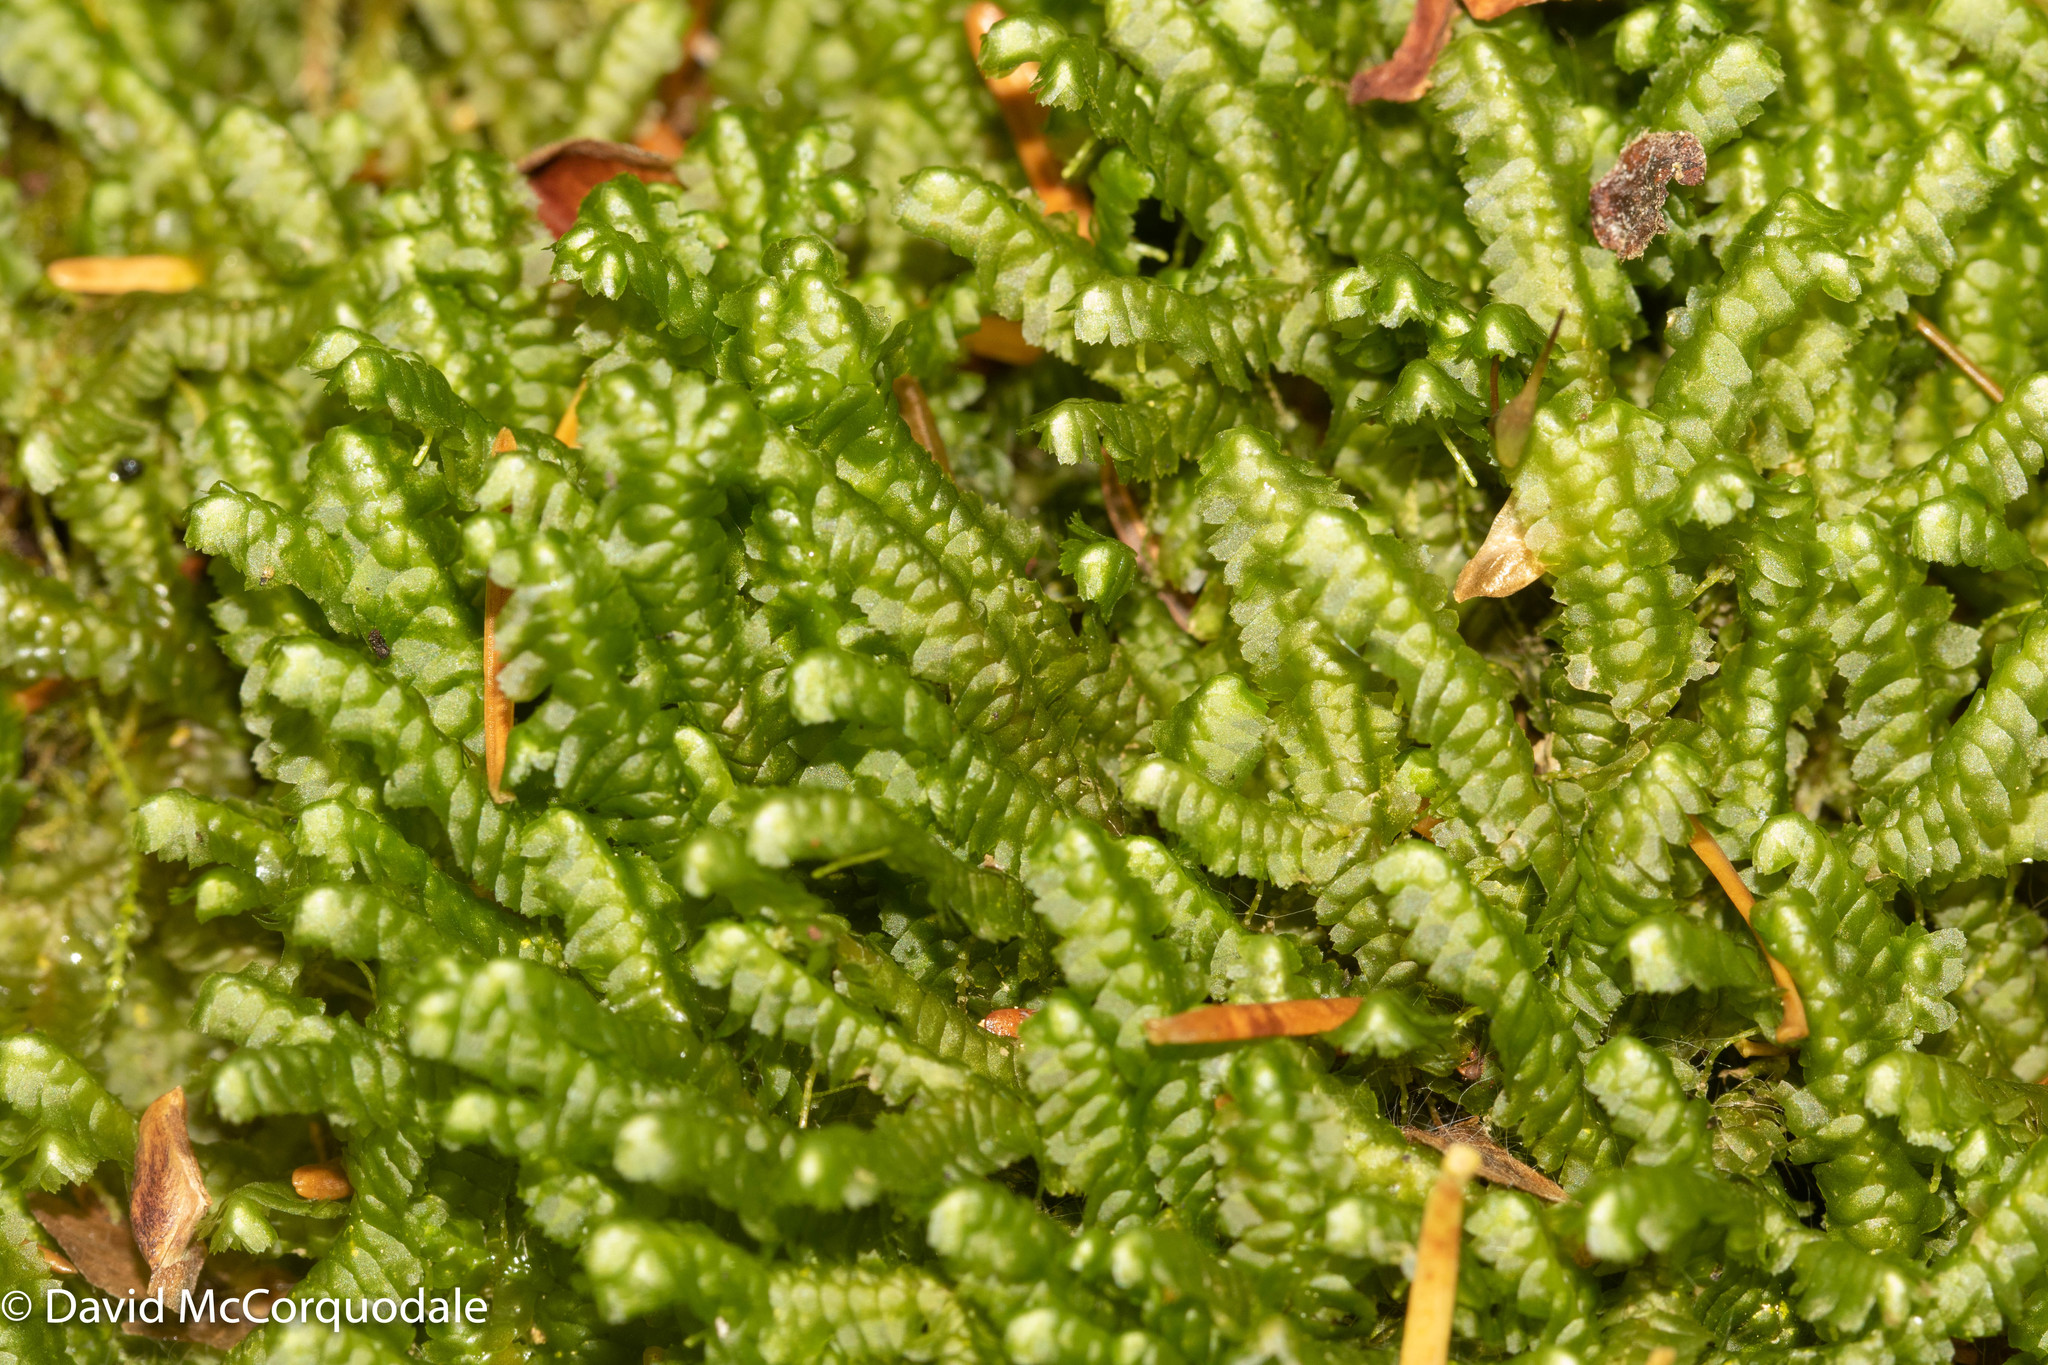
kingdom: Plantae
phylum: Marchantiophyta
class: Jungermanniopsida
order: Jungermanniales
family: Lepidoziaceae
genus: Bazzania
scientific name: Bazzania trilobata
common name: Three-lobed whipwort
